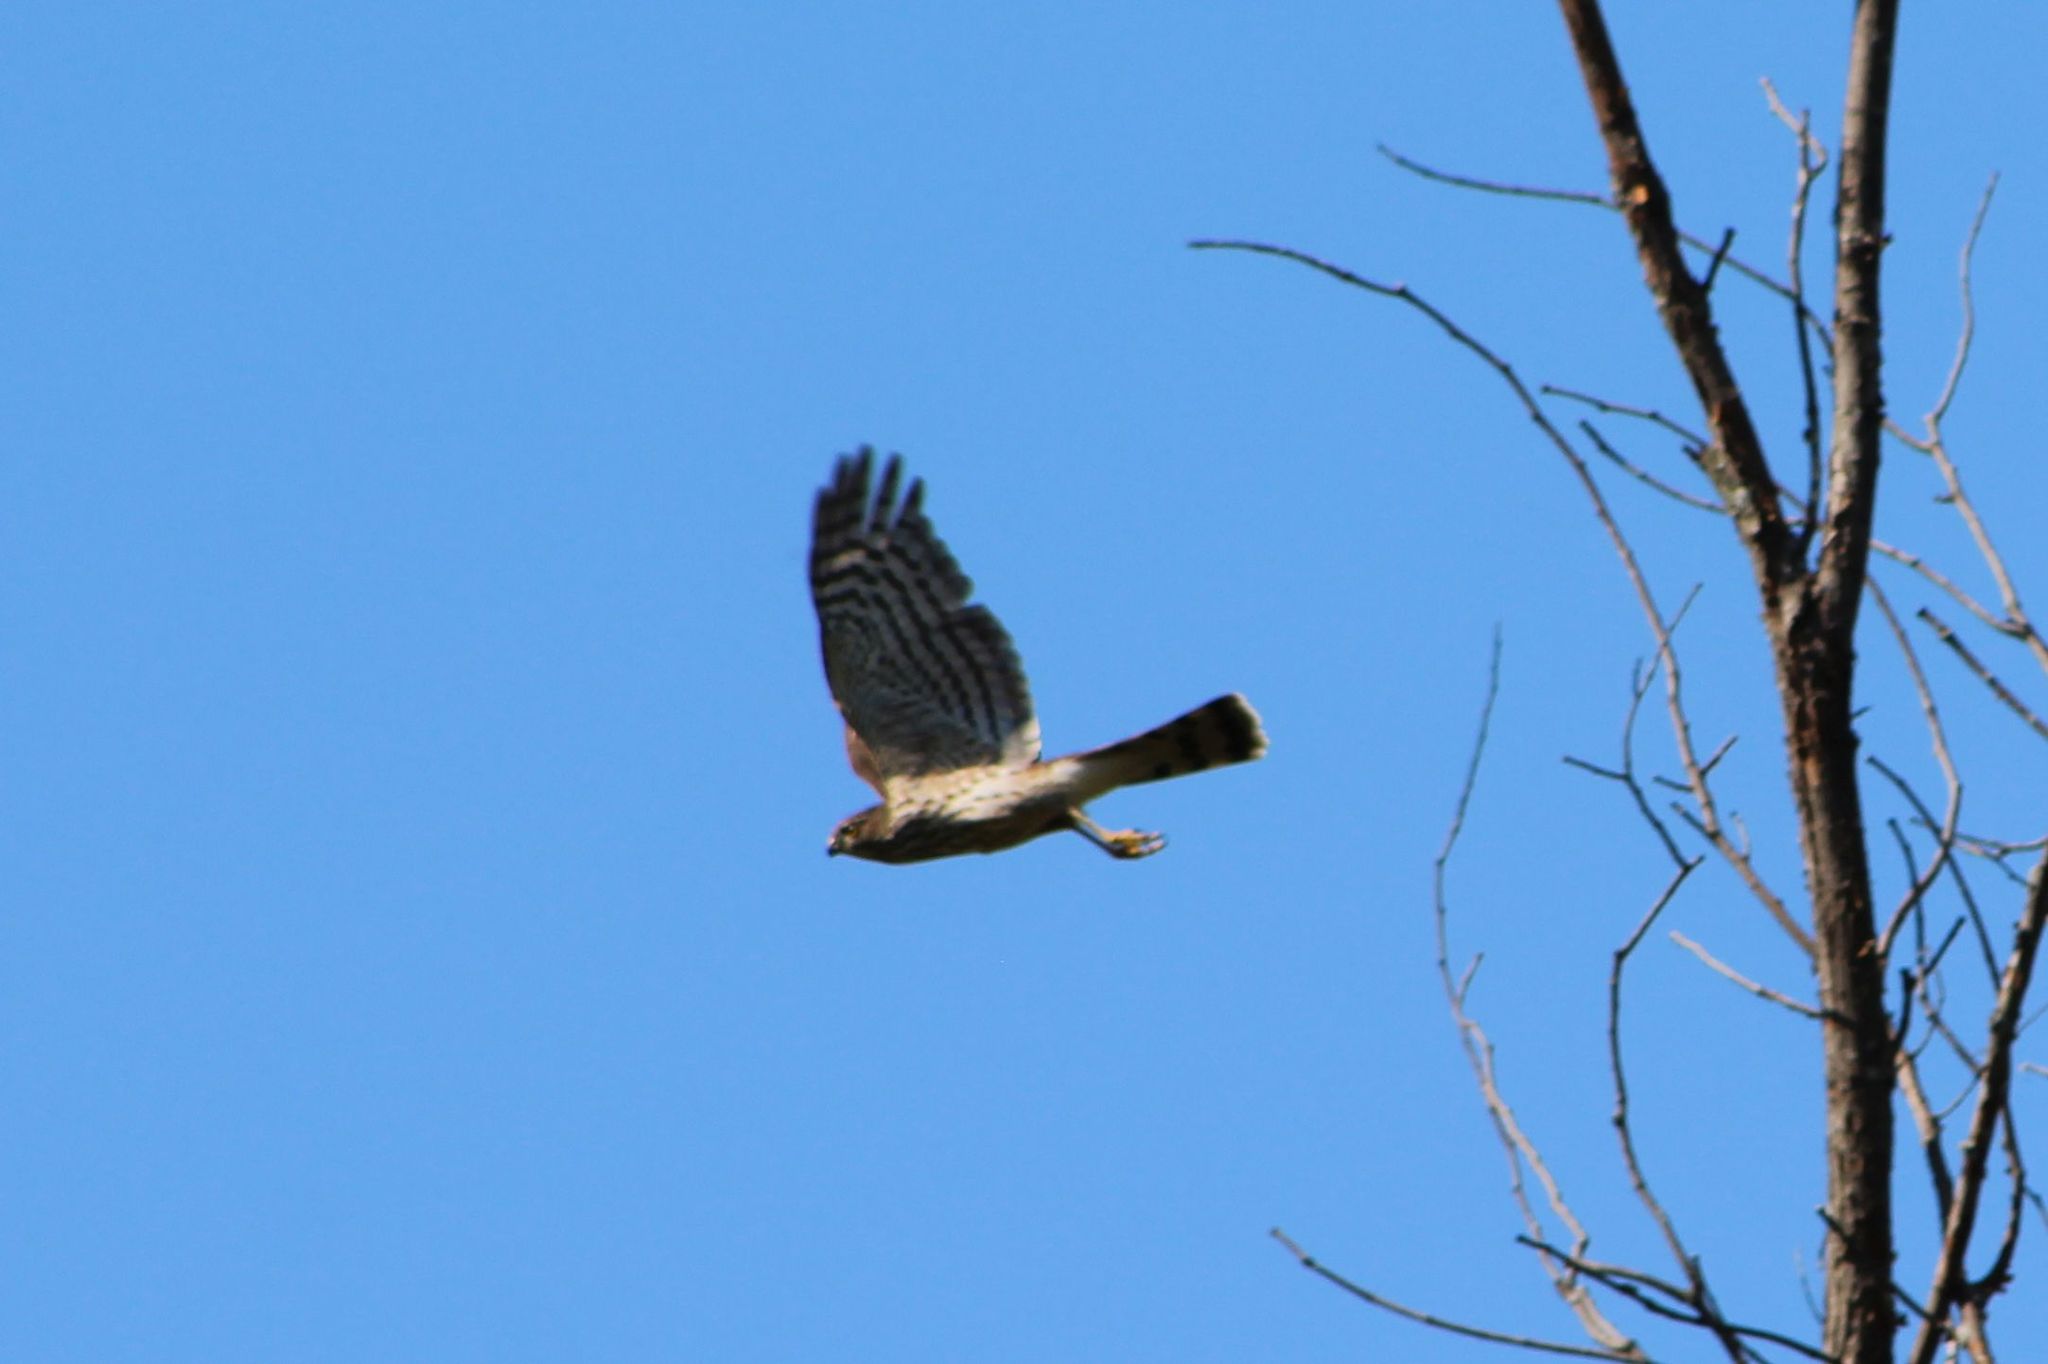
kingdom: Animalia
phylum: Chordata
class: Aves
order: Accipitriformes
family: Accipitridae
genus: Accipiter
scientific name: Accipiter striatus
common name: Sharp-shinned hawk
